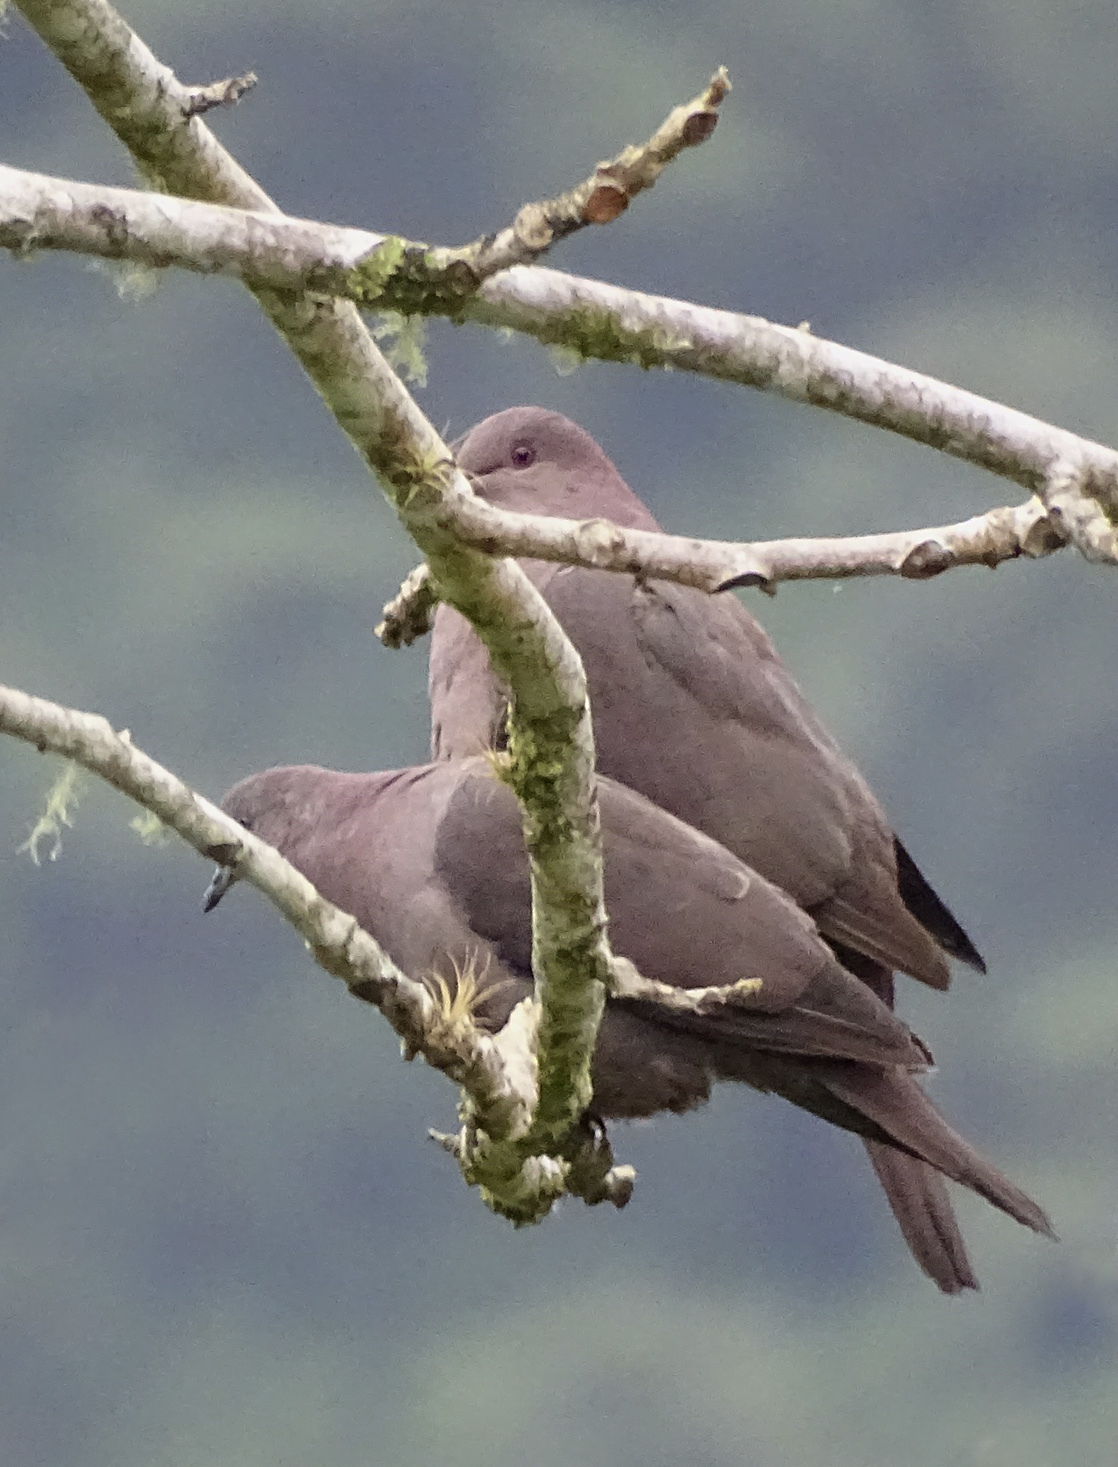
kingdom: Animalia
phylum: Chordata
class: Aves
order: Columbiformes
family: Columbidae
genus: Patagioenas
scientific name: Patagioenas subvinacea
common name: Ruddy pigeon
